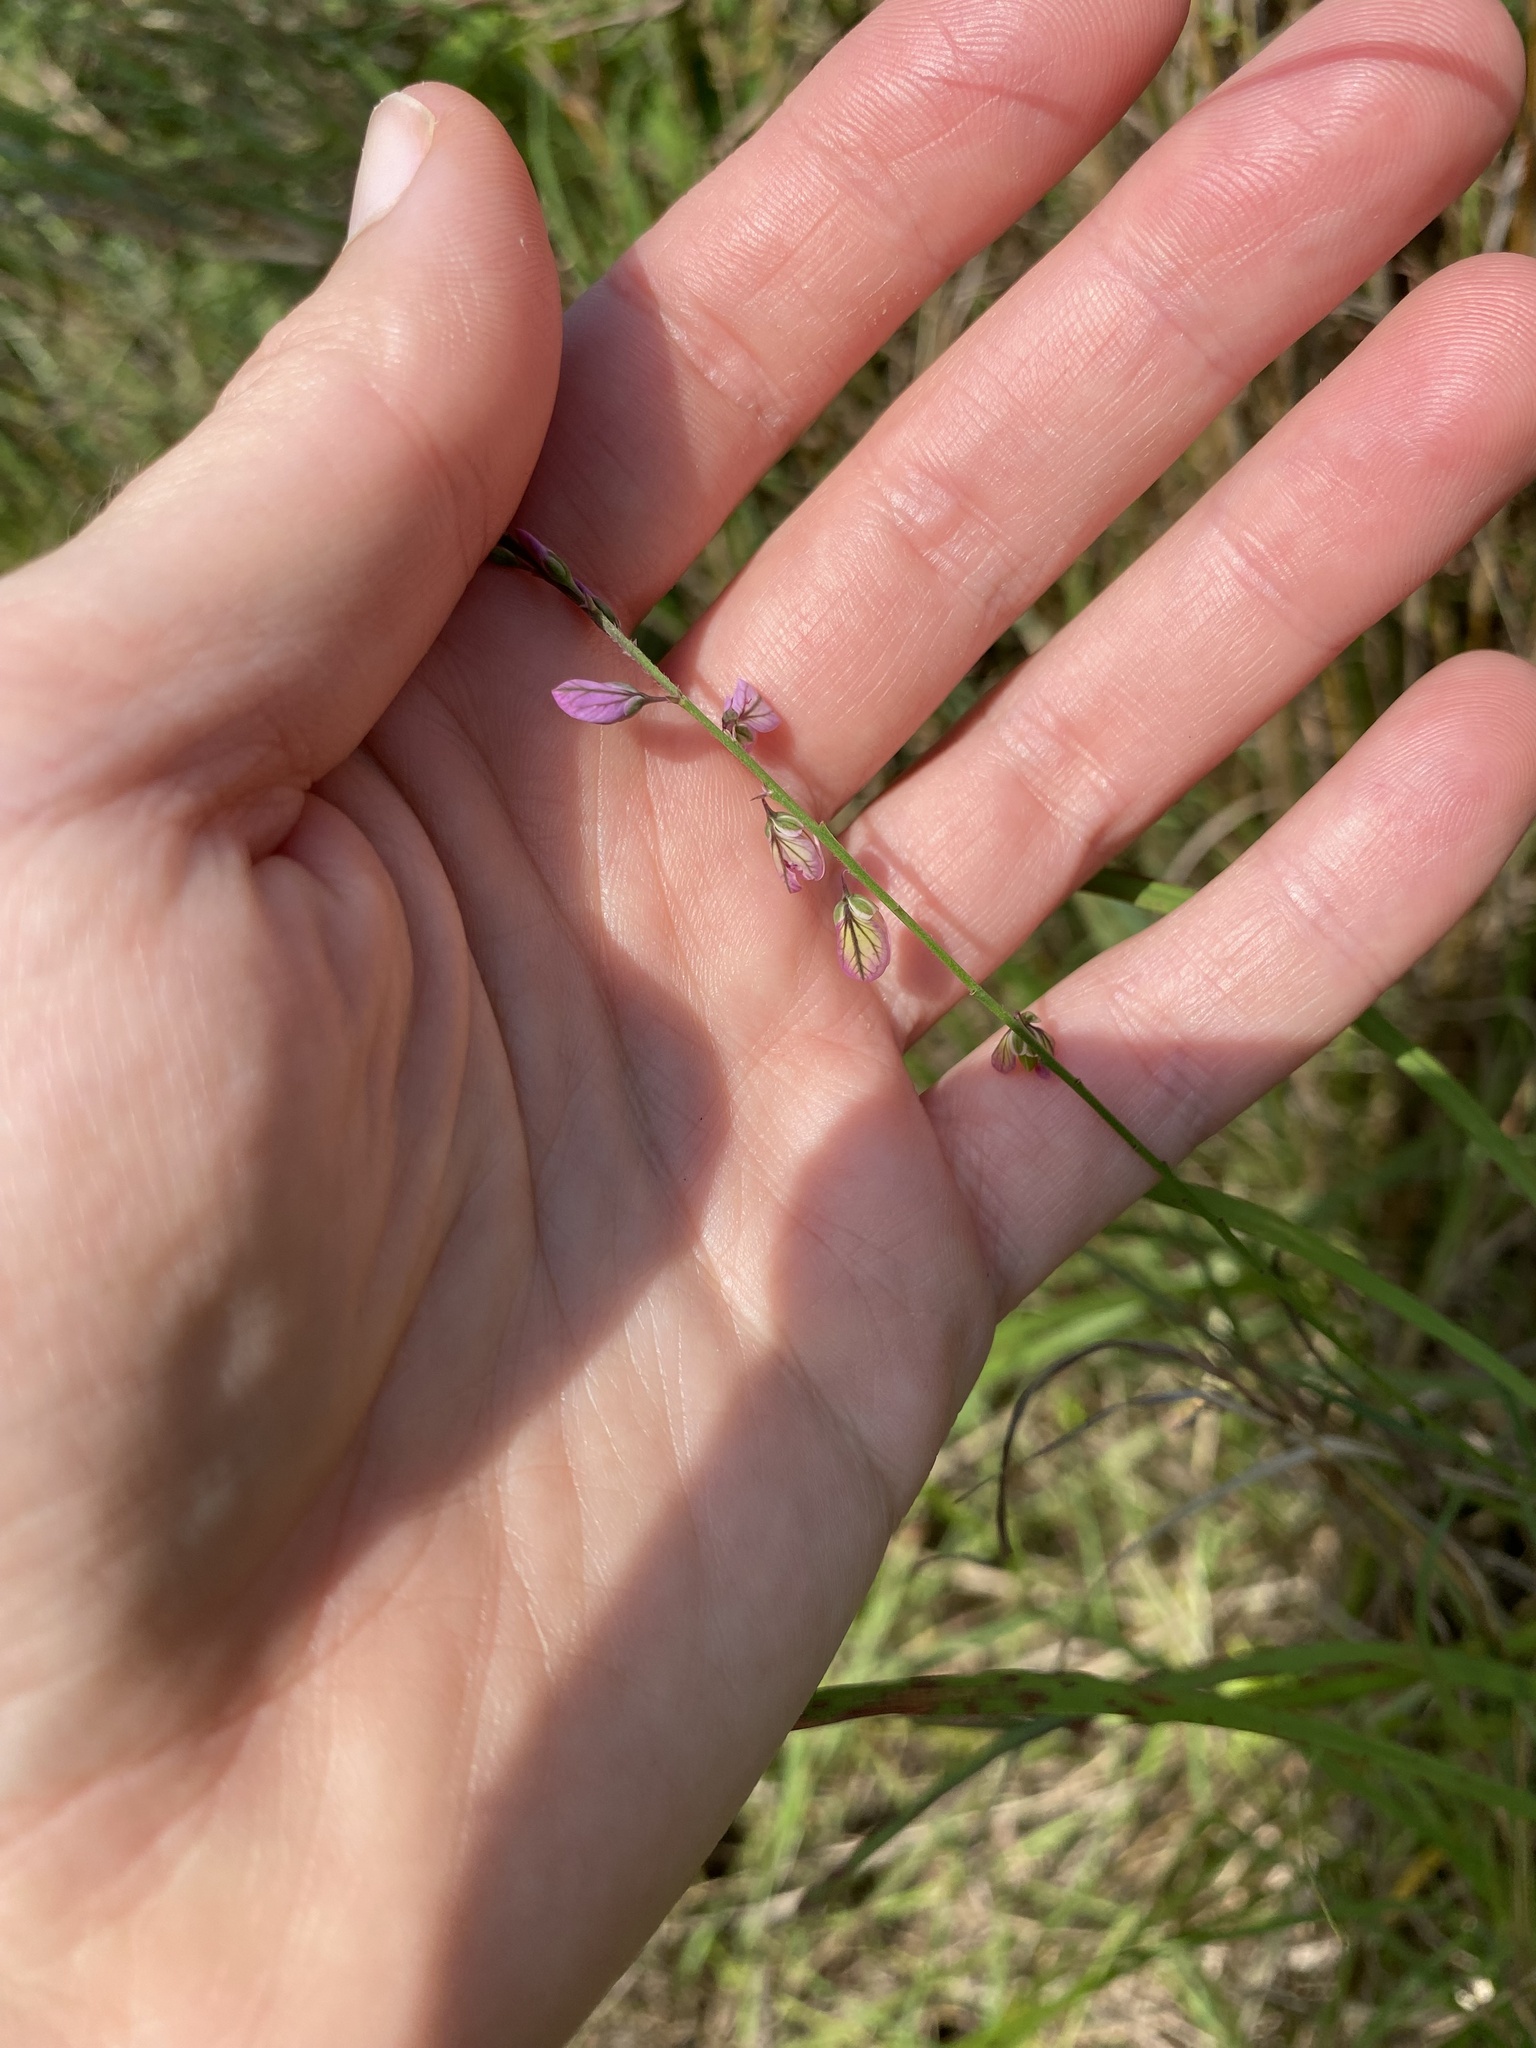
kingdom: Plantae
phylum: Tracheophyta
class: Magnoliopsida
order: Fabales
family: Polygalaceae
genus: Polygala
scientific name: Polygala hottentotta
